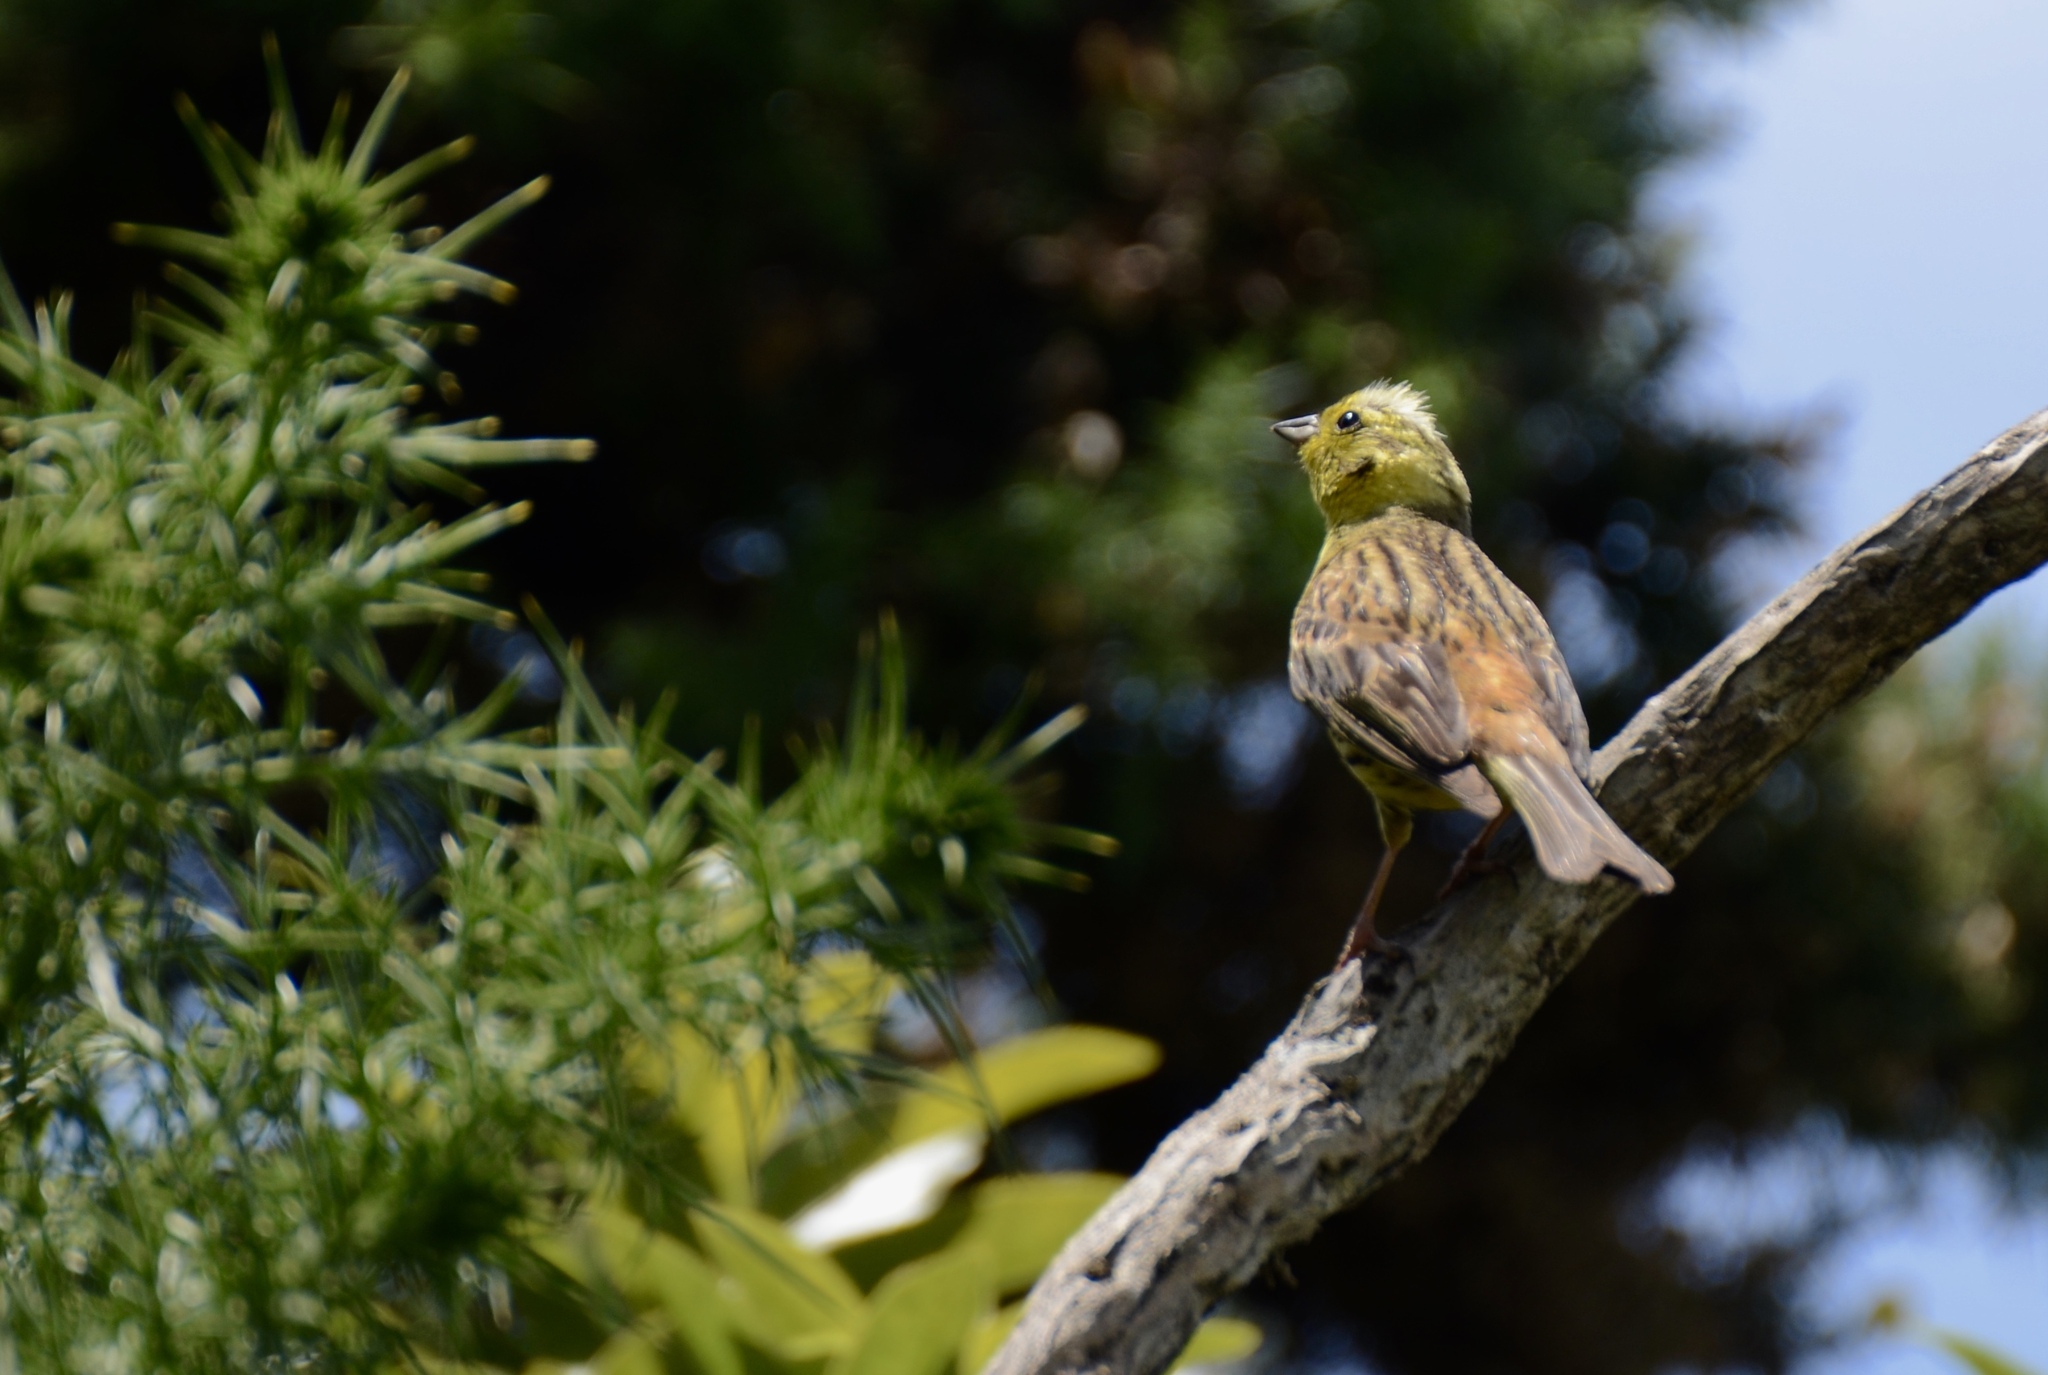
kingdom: Animalia
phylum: Chordata
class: Aves
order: Passeriformes
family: Emberizidae
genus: Emberiza
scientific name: Emberiza citrinella
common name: Yellowhammer
